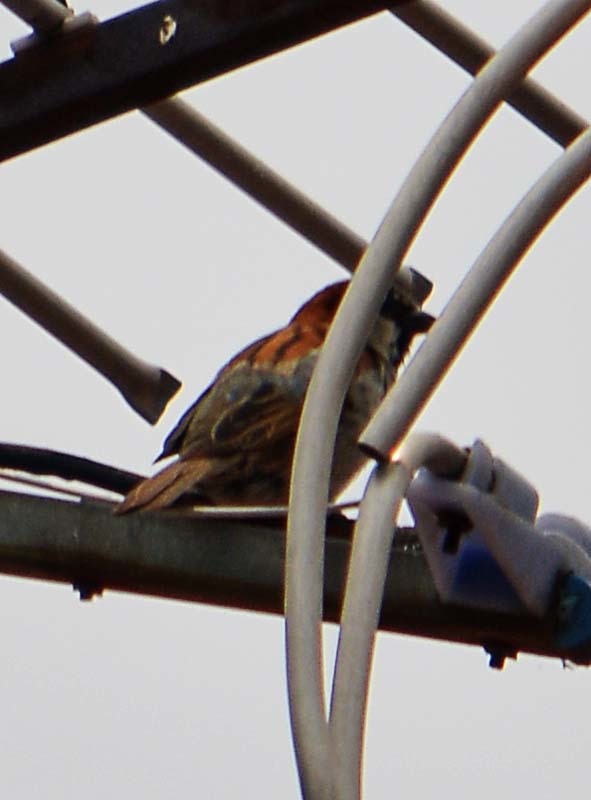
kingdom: Animalia
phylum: Chordata
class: Aves
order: Passeriformes
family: Passeridae
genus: Passer
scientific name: Passer domesticus
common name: House sparrow
